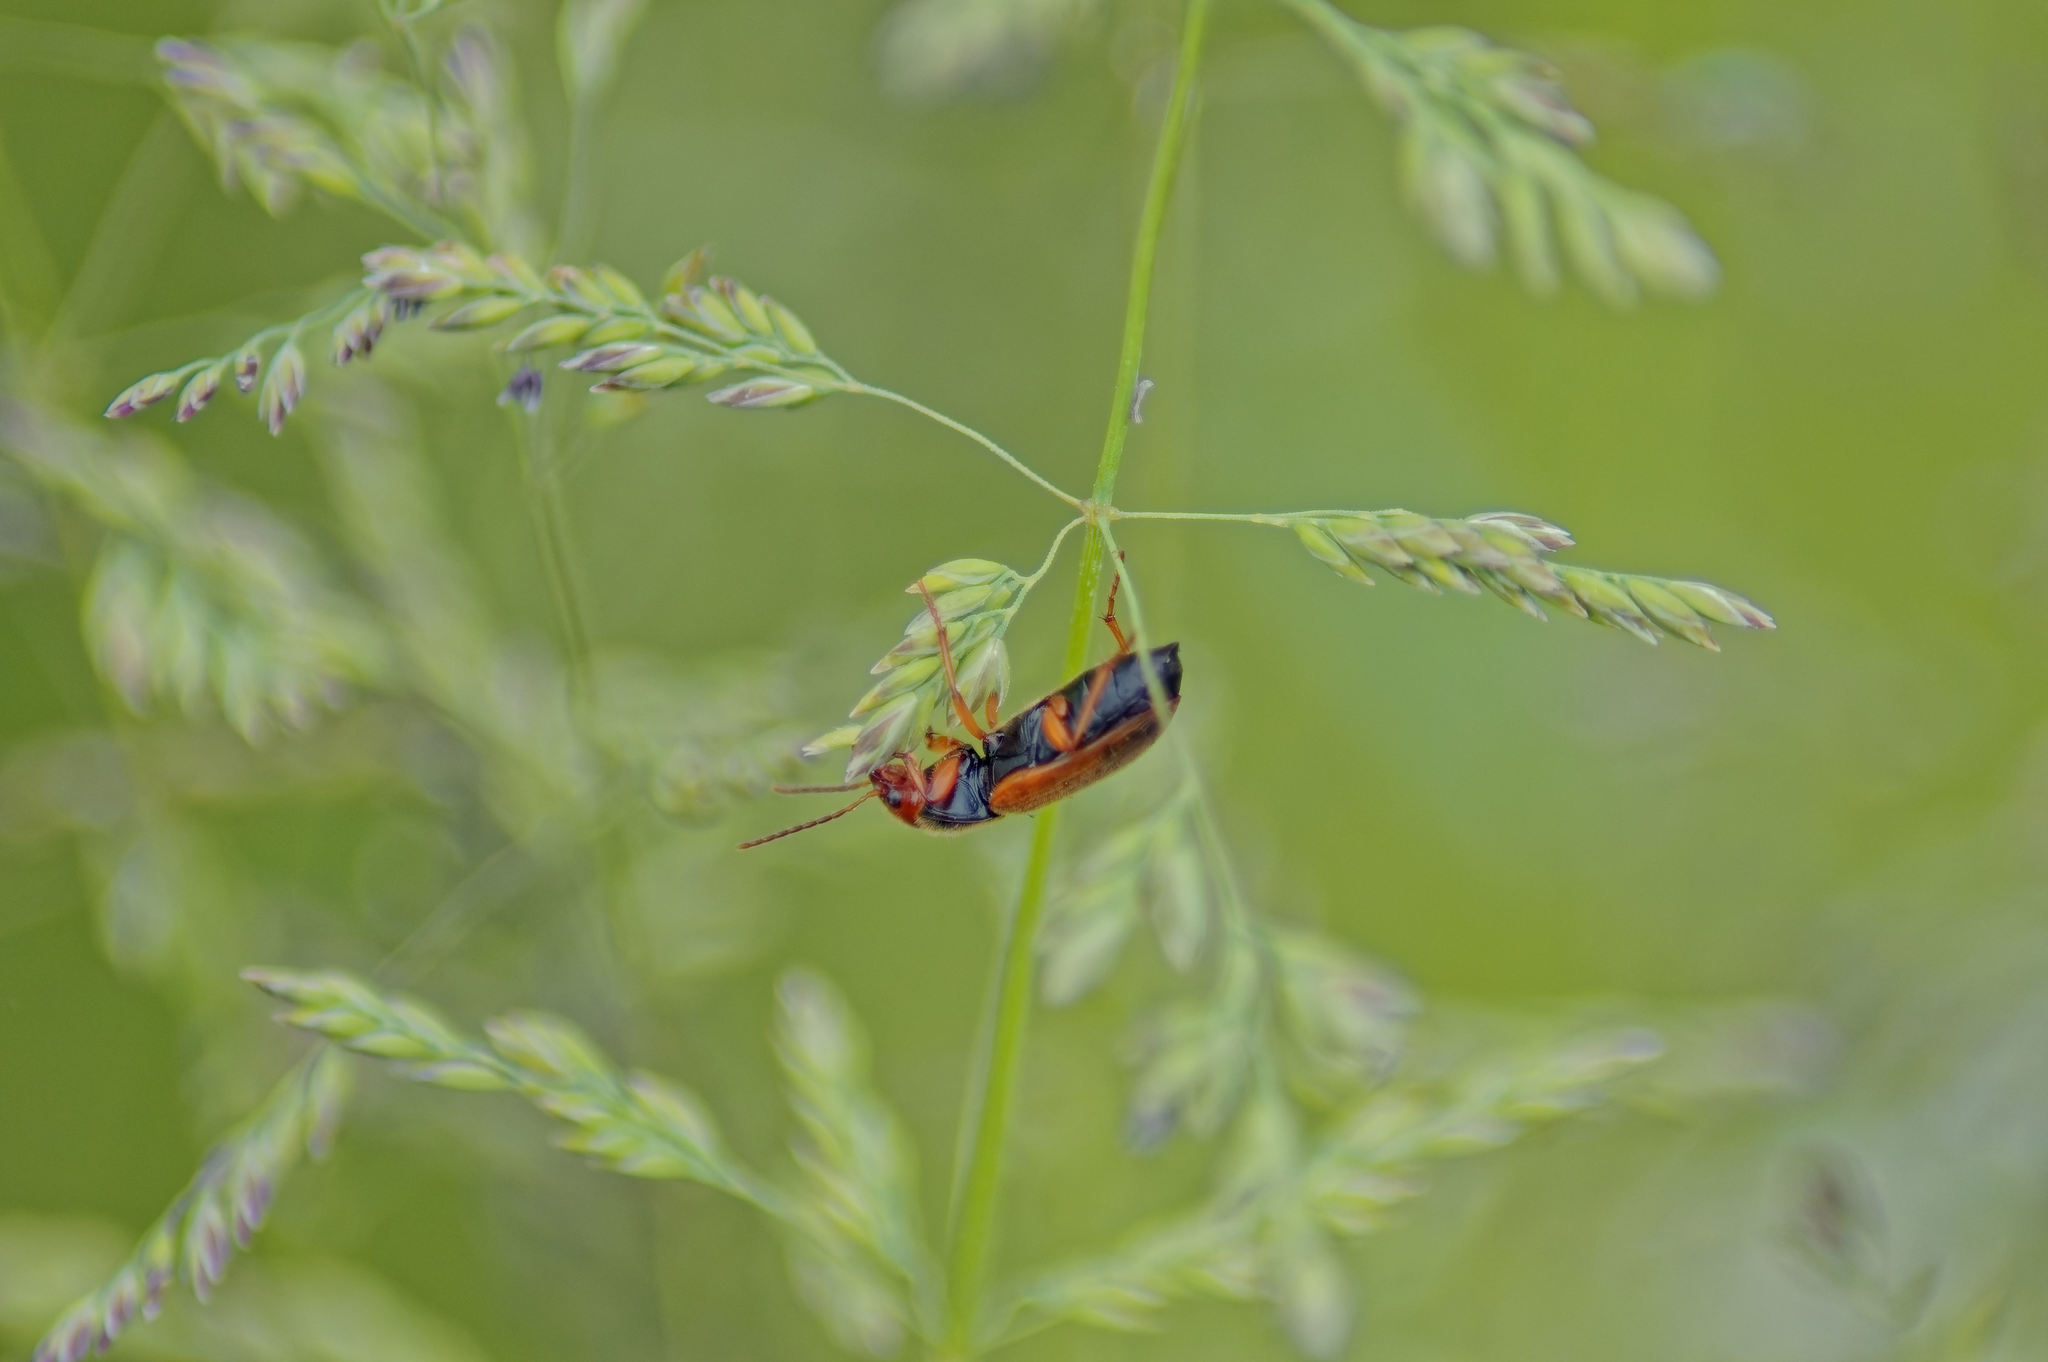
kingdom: Animalia
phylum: Arthropoda
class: Insecta
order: Coleoptera
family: Carabidae
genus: Diachromus
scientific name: Diachromus germanus
